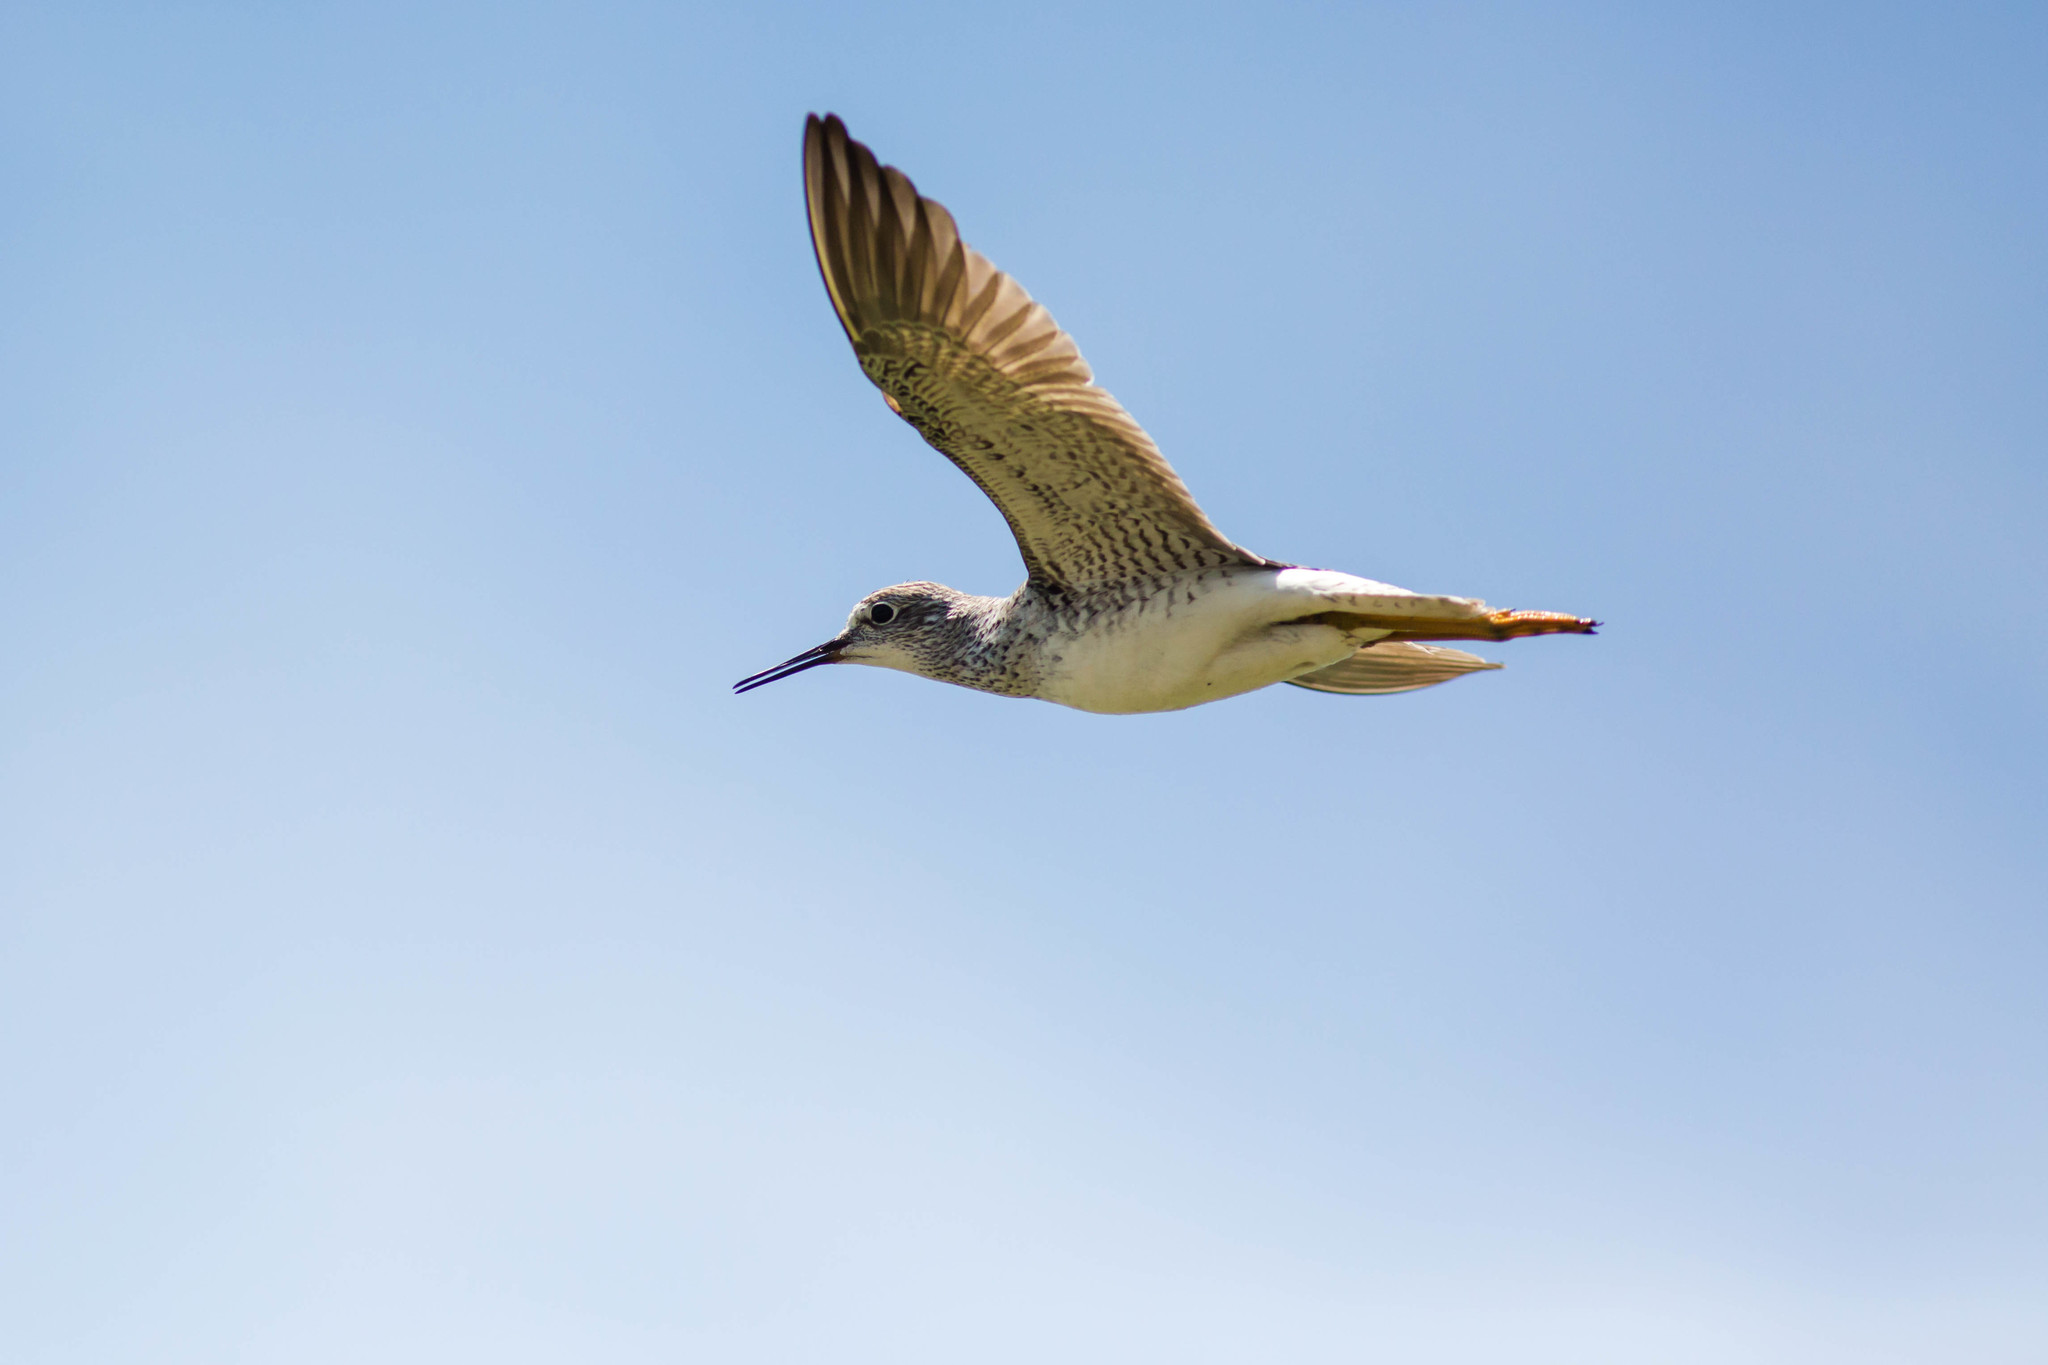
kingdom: Animalia
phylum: Chordata
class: Aves
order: Charadriiformes
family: Scolopacidae
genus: Tringa
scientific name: Tringa flavipes
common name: Lesser yellowlegs
